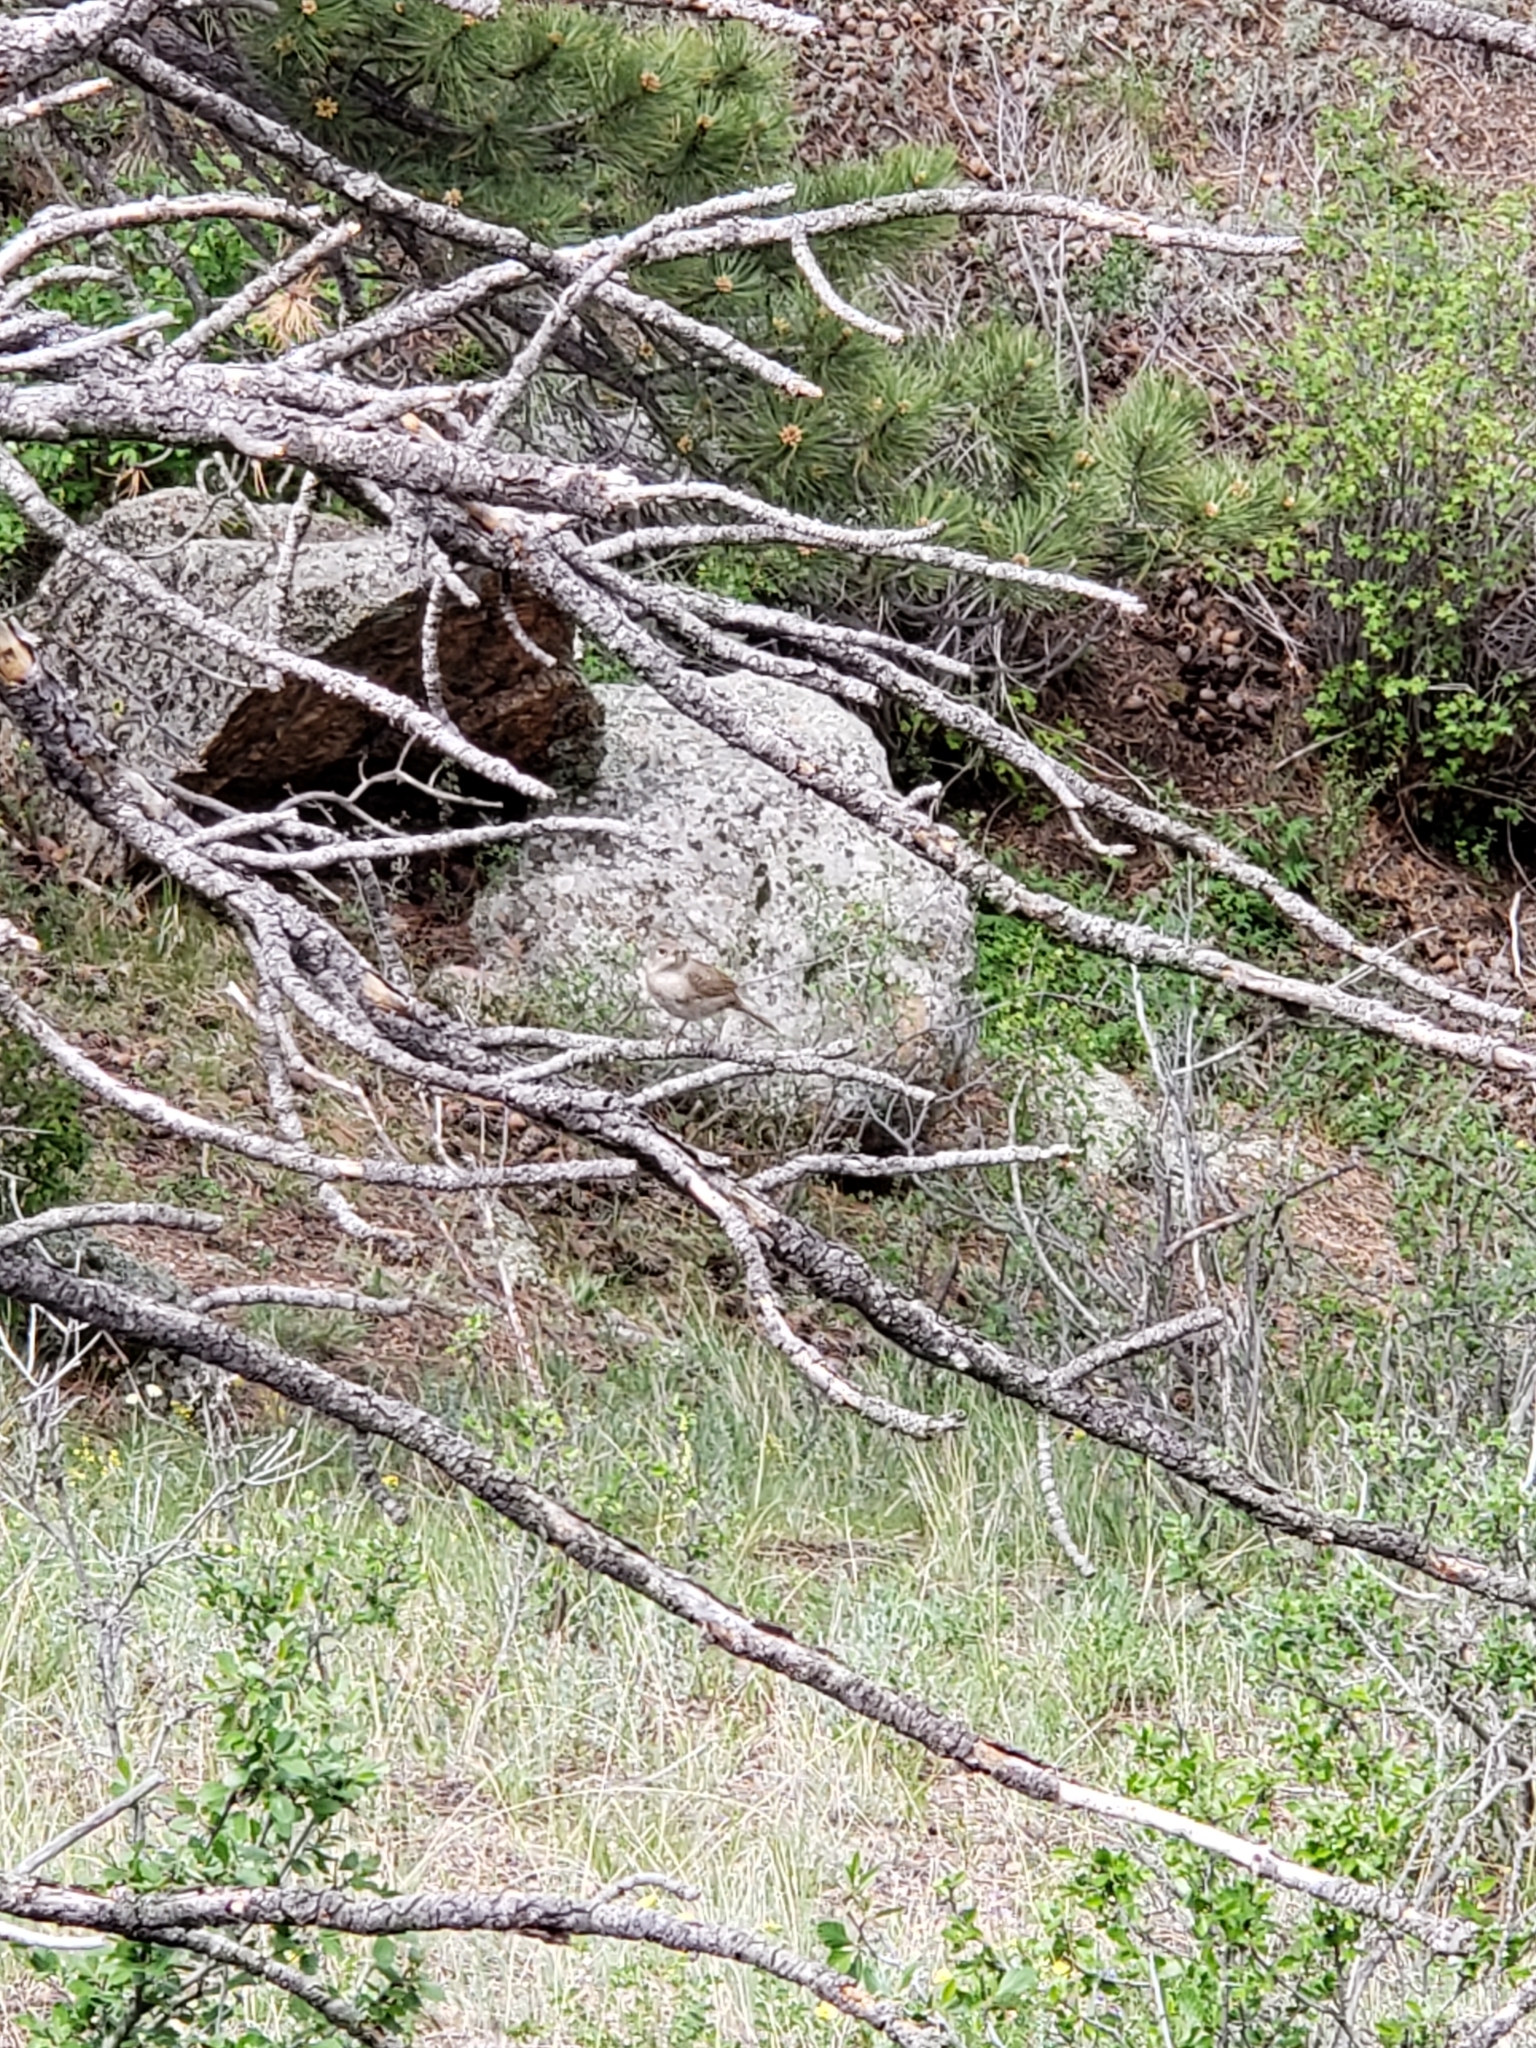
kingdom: Animalia
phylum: Chordata
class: Aves
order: Passeriformes
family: Troglodytidae
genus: Salpinctes
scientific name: Salpinctes obsoletus
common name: Rock wren
